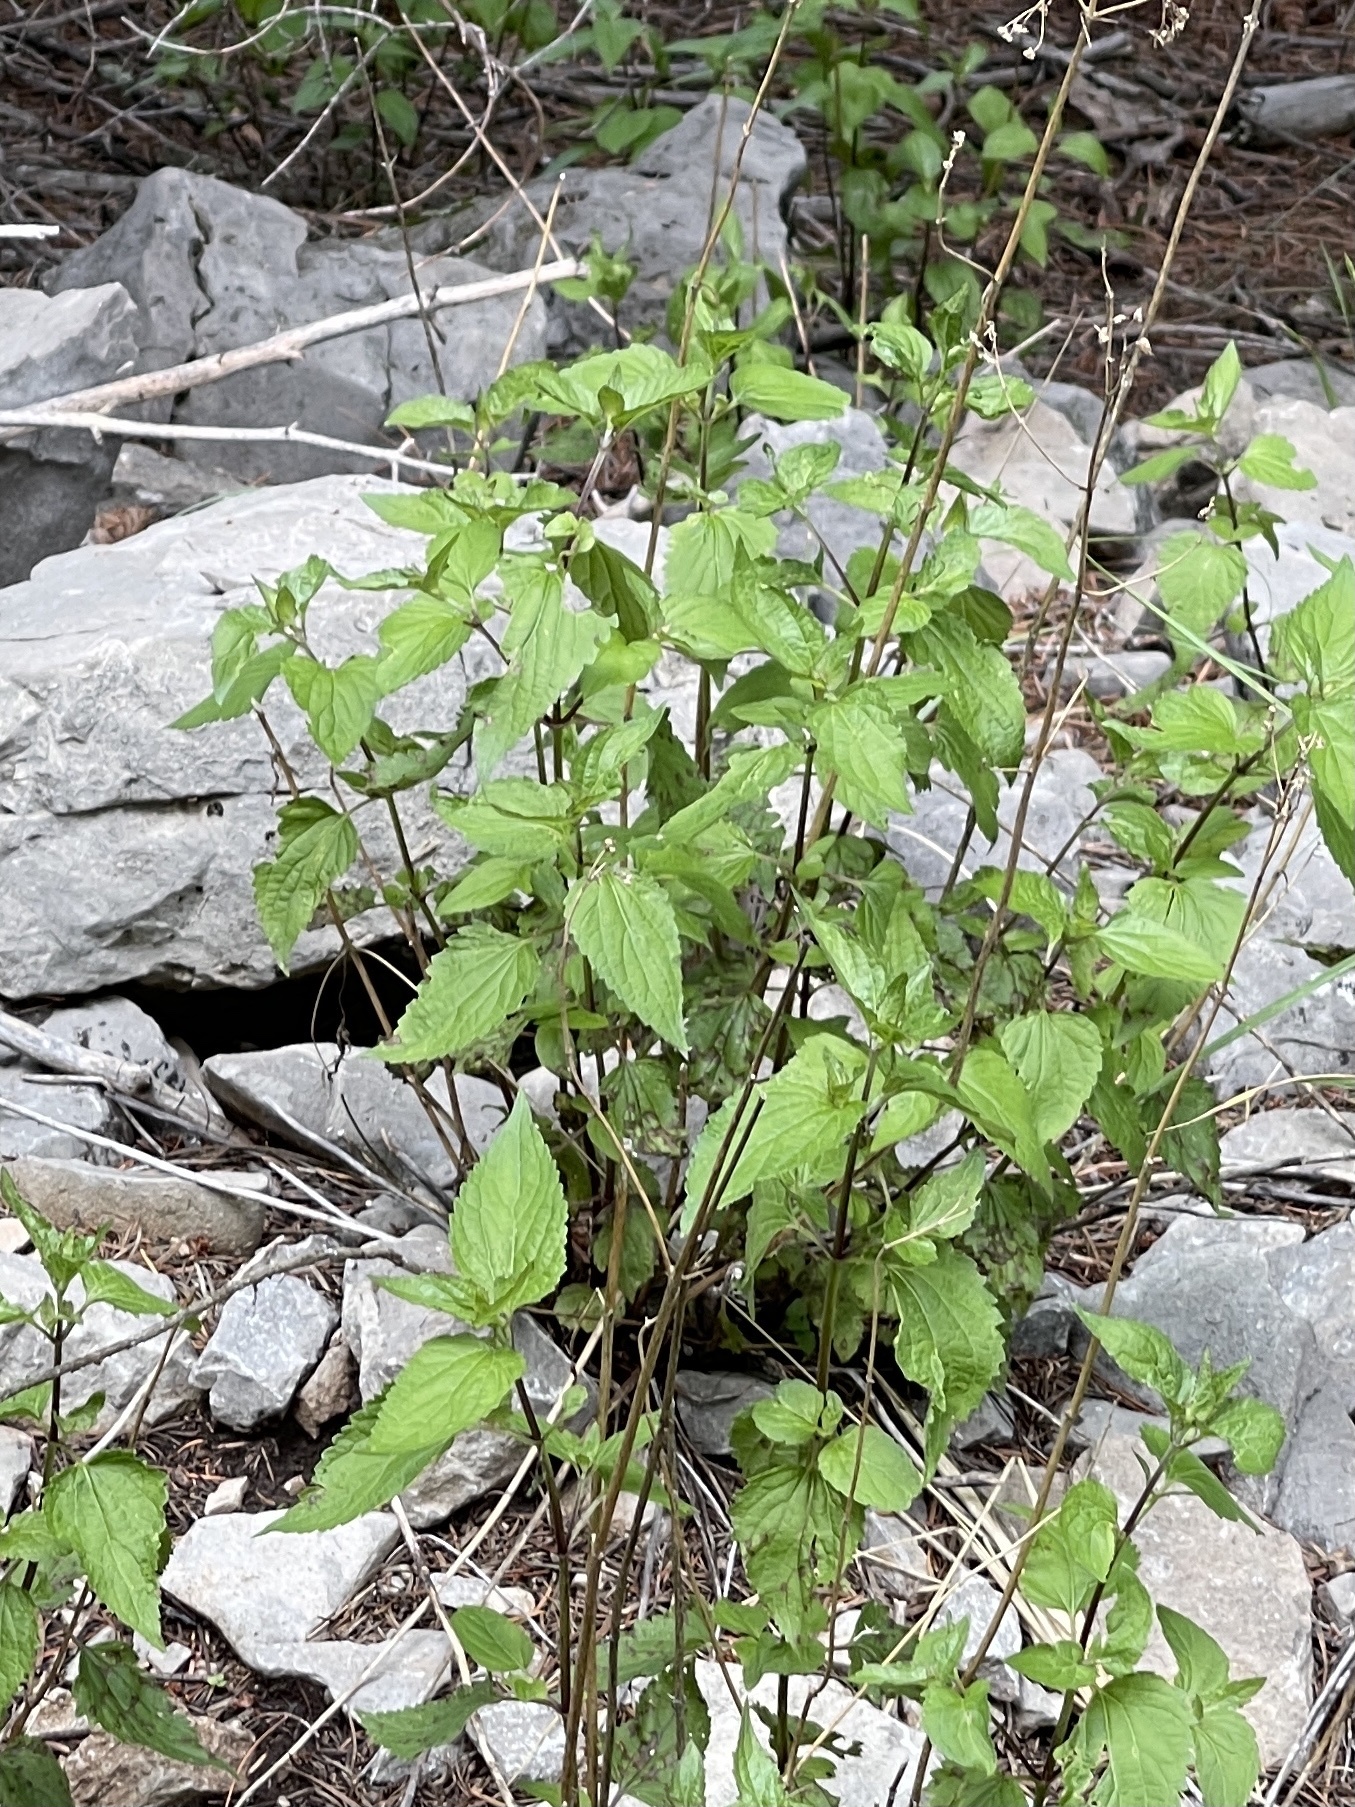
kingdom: Plantae
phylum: Tracheophyta
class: Magnoliopsida
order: Rosales
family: Urticaceae
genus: Urtica
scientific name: Urtica gracilis
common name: Slender stinging nettle
